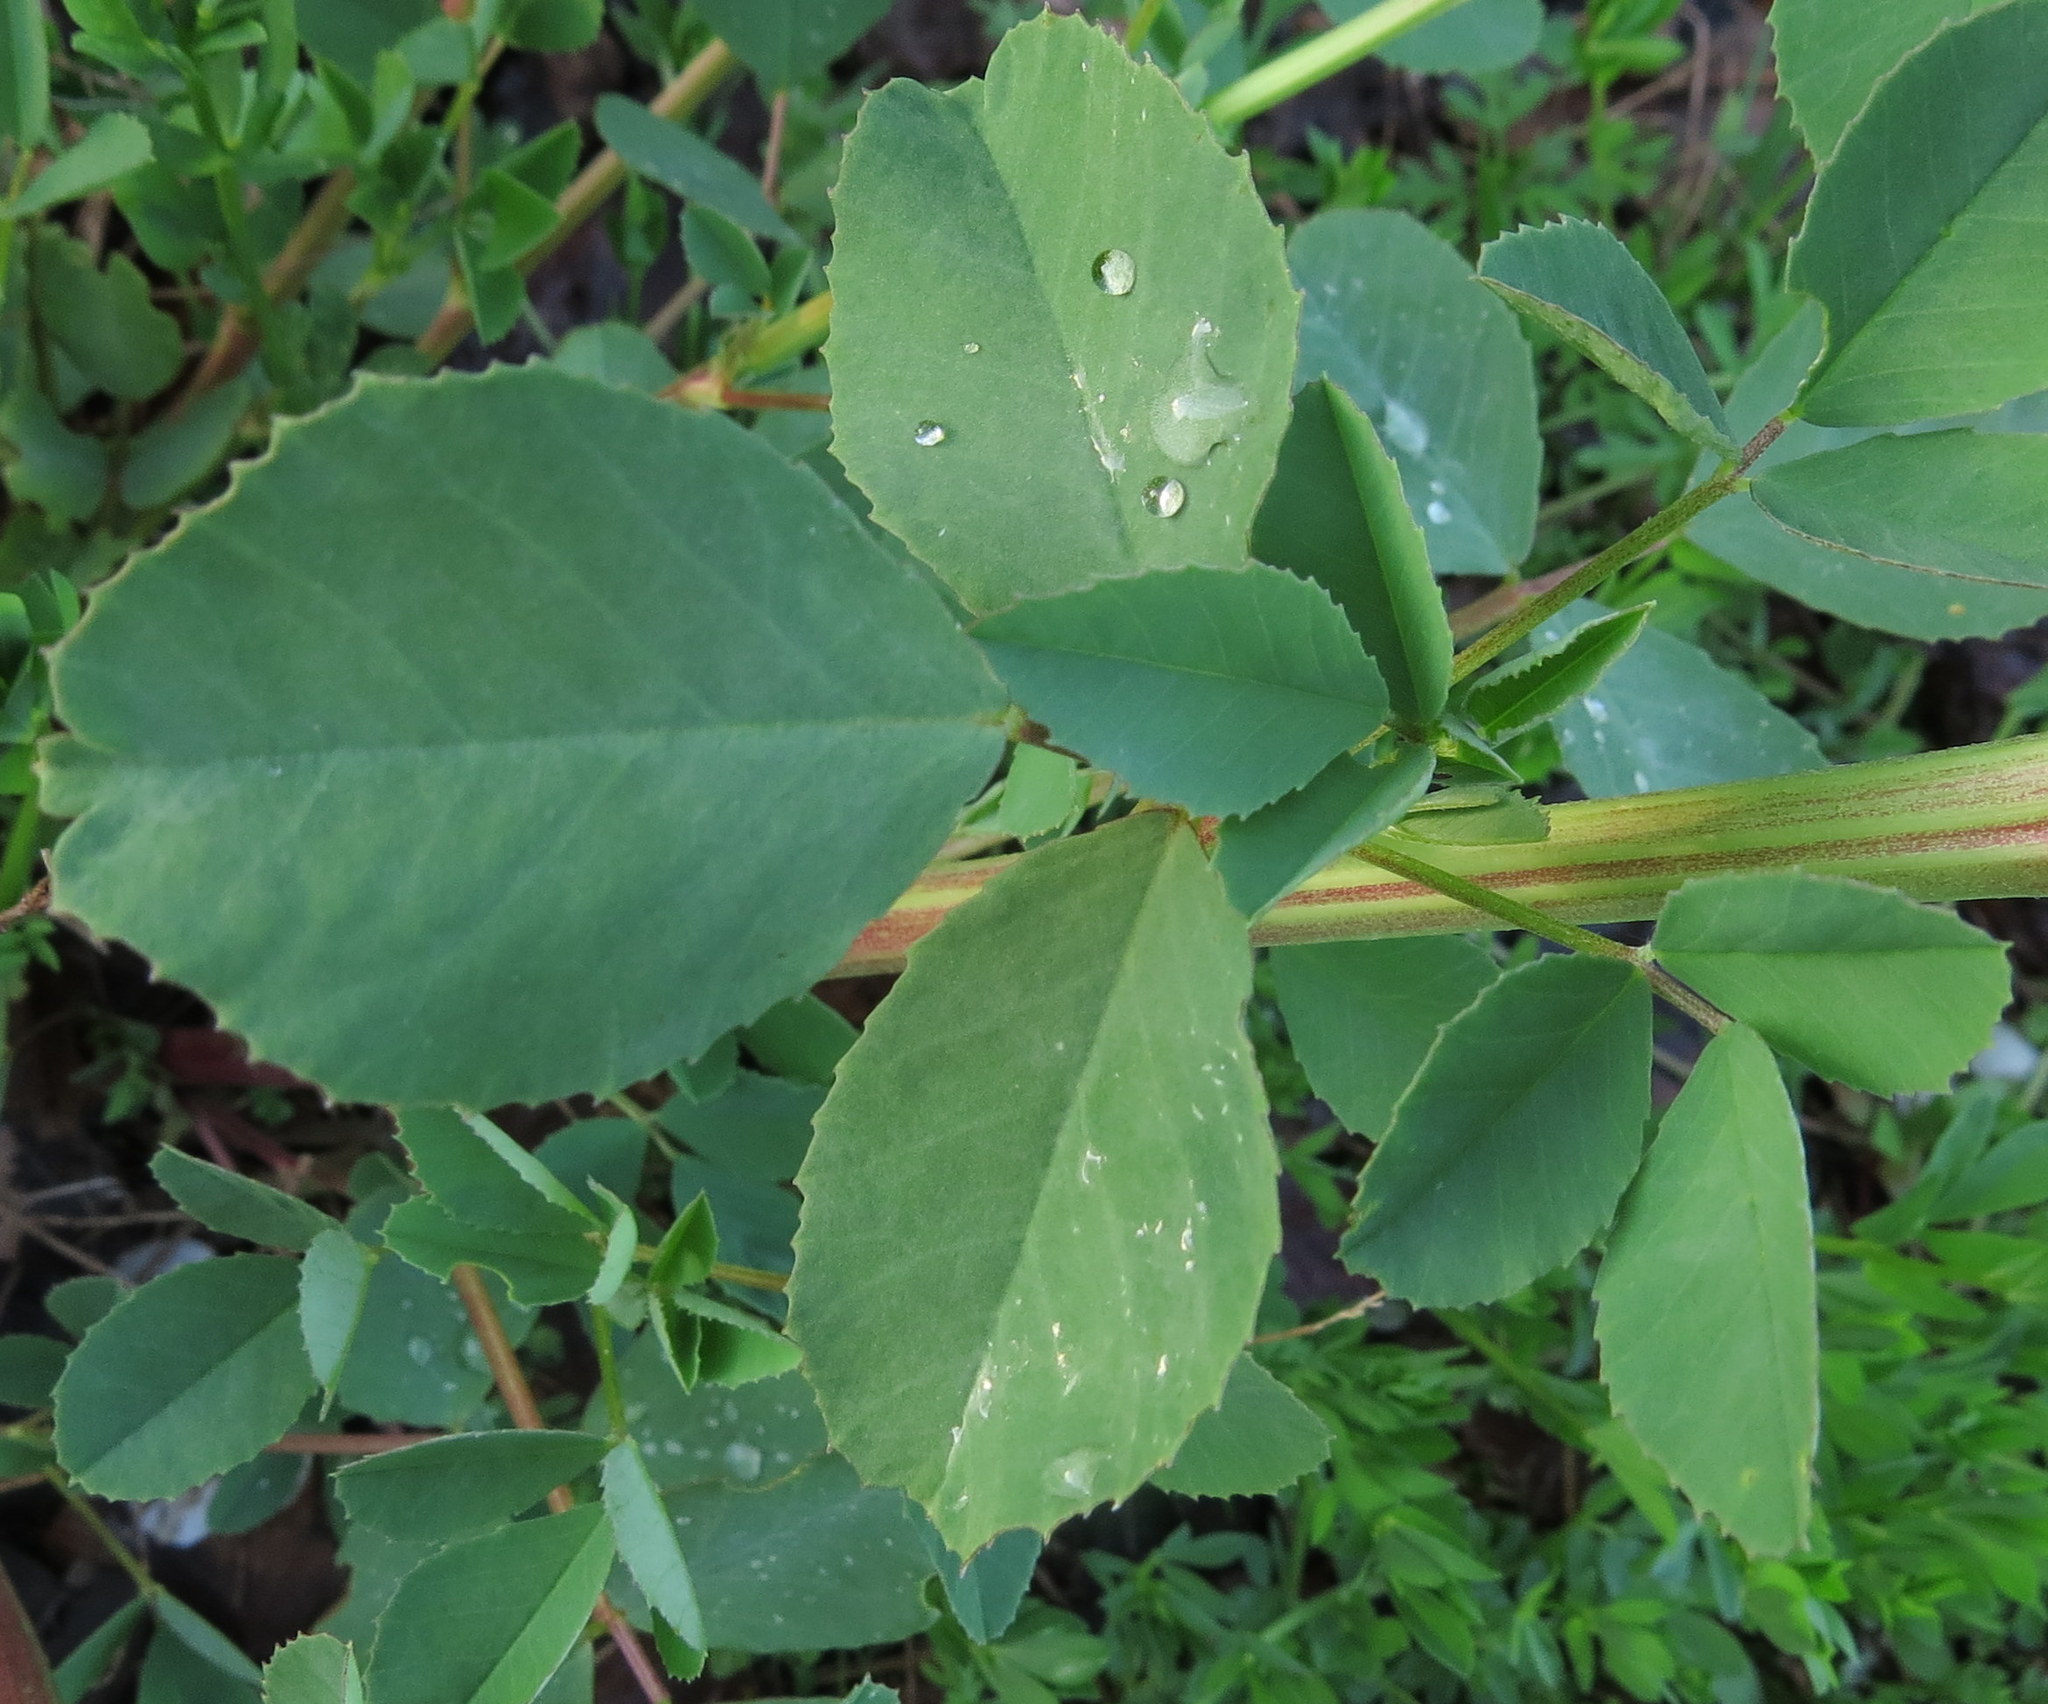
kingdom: Plantae
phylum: Tracheophyta
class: Magnoliopsida
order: Fabales
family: Fabaceae
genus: Melilotus
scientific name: Melilotus albus
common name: White melilot
